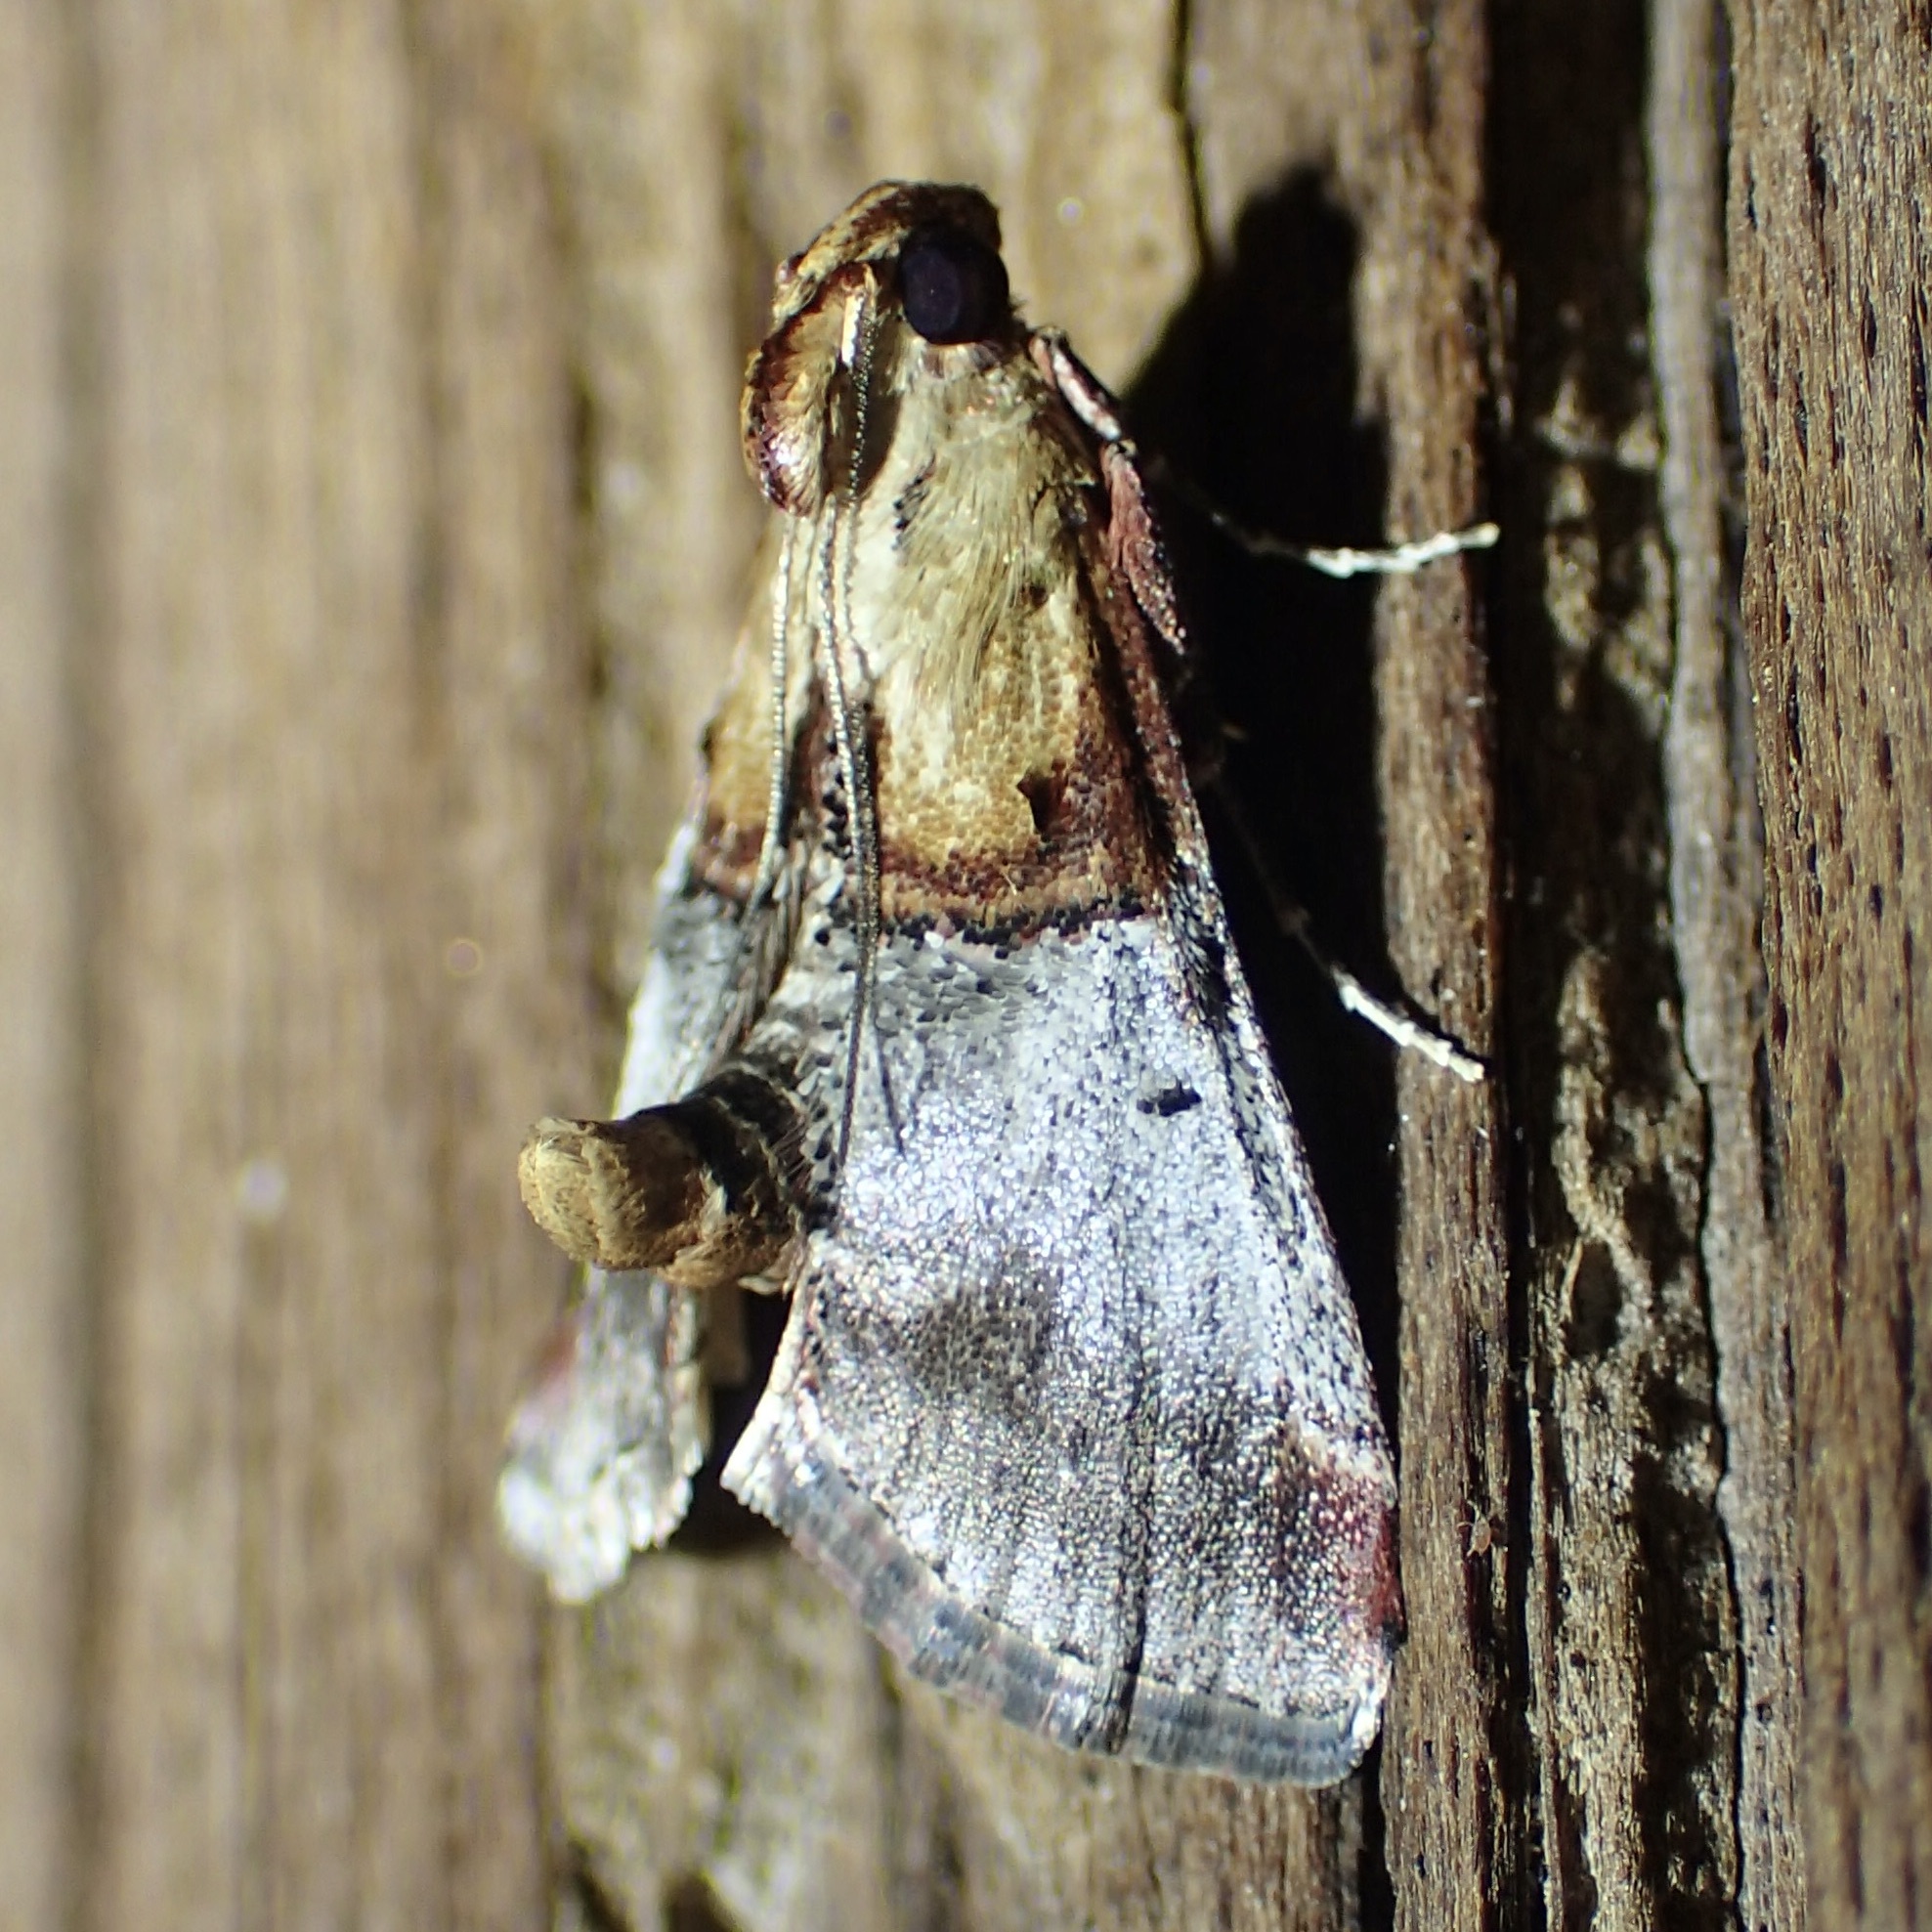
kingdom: Animalia
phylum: Arthropoda
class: Insecta
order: Lepidoptera
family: Pyralidae
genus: Cacozelia
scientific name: Cacozelia basiochrealis
